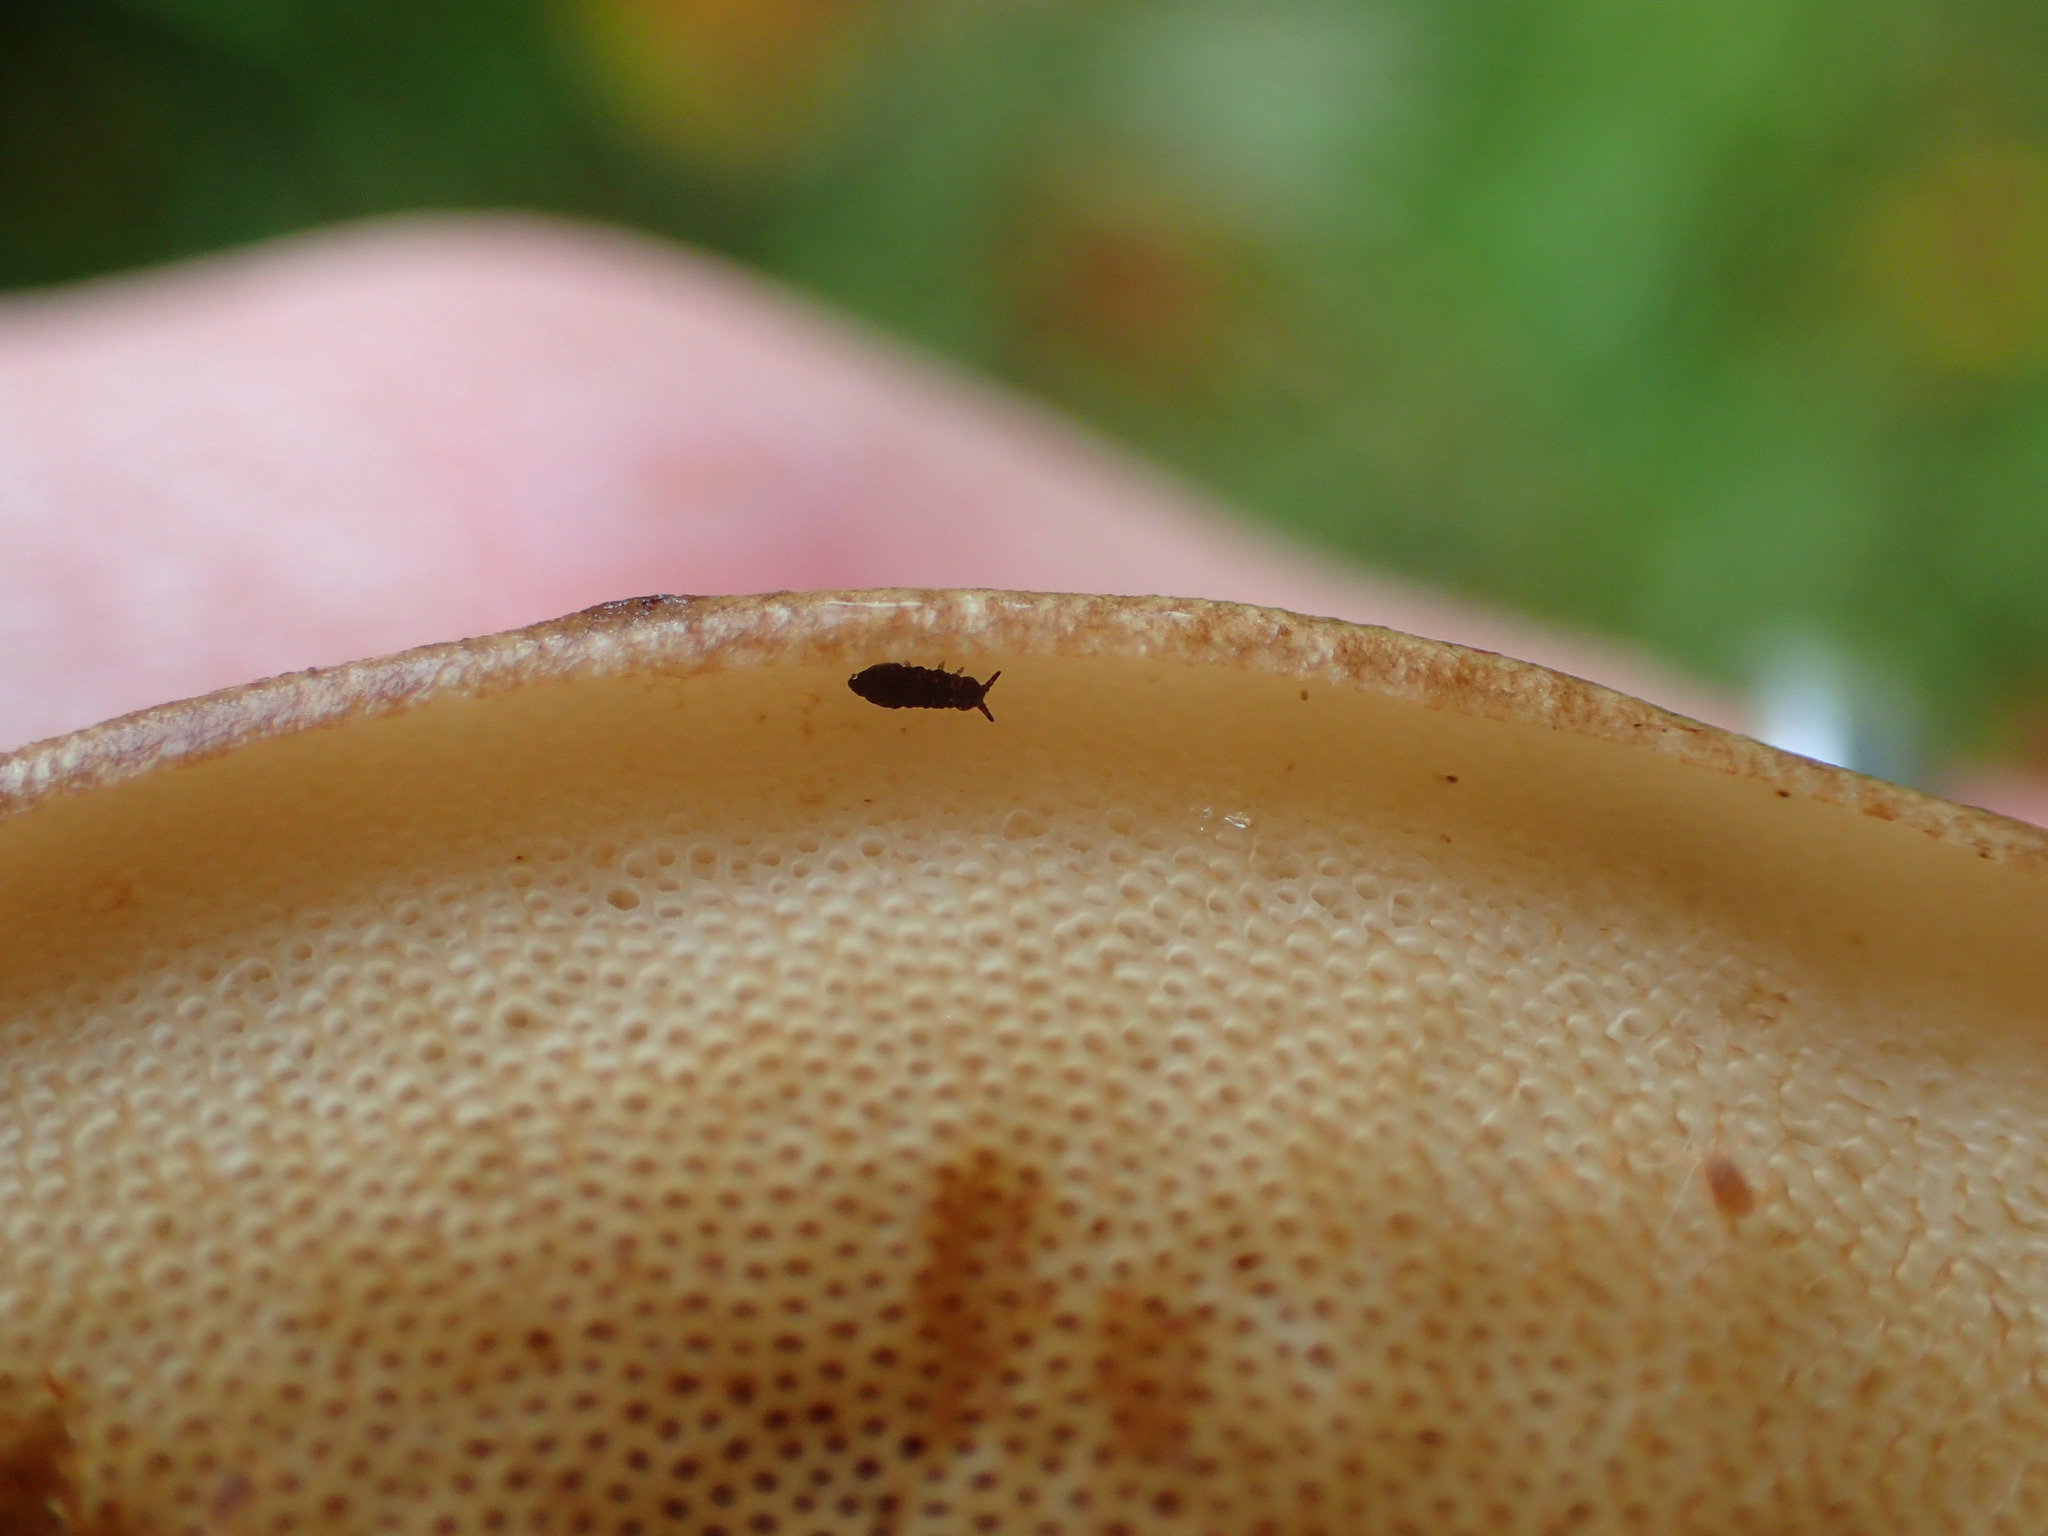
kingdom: Fungi
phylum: Basidiomycota
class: Agaricomycetes
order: Agaricales
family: Amanitaceae
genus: Amanita
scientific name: Amanita muscaria
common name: Fly agaric
